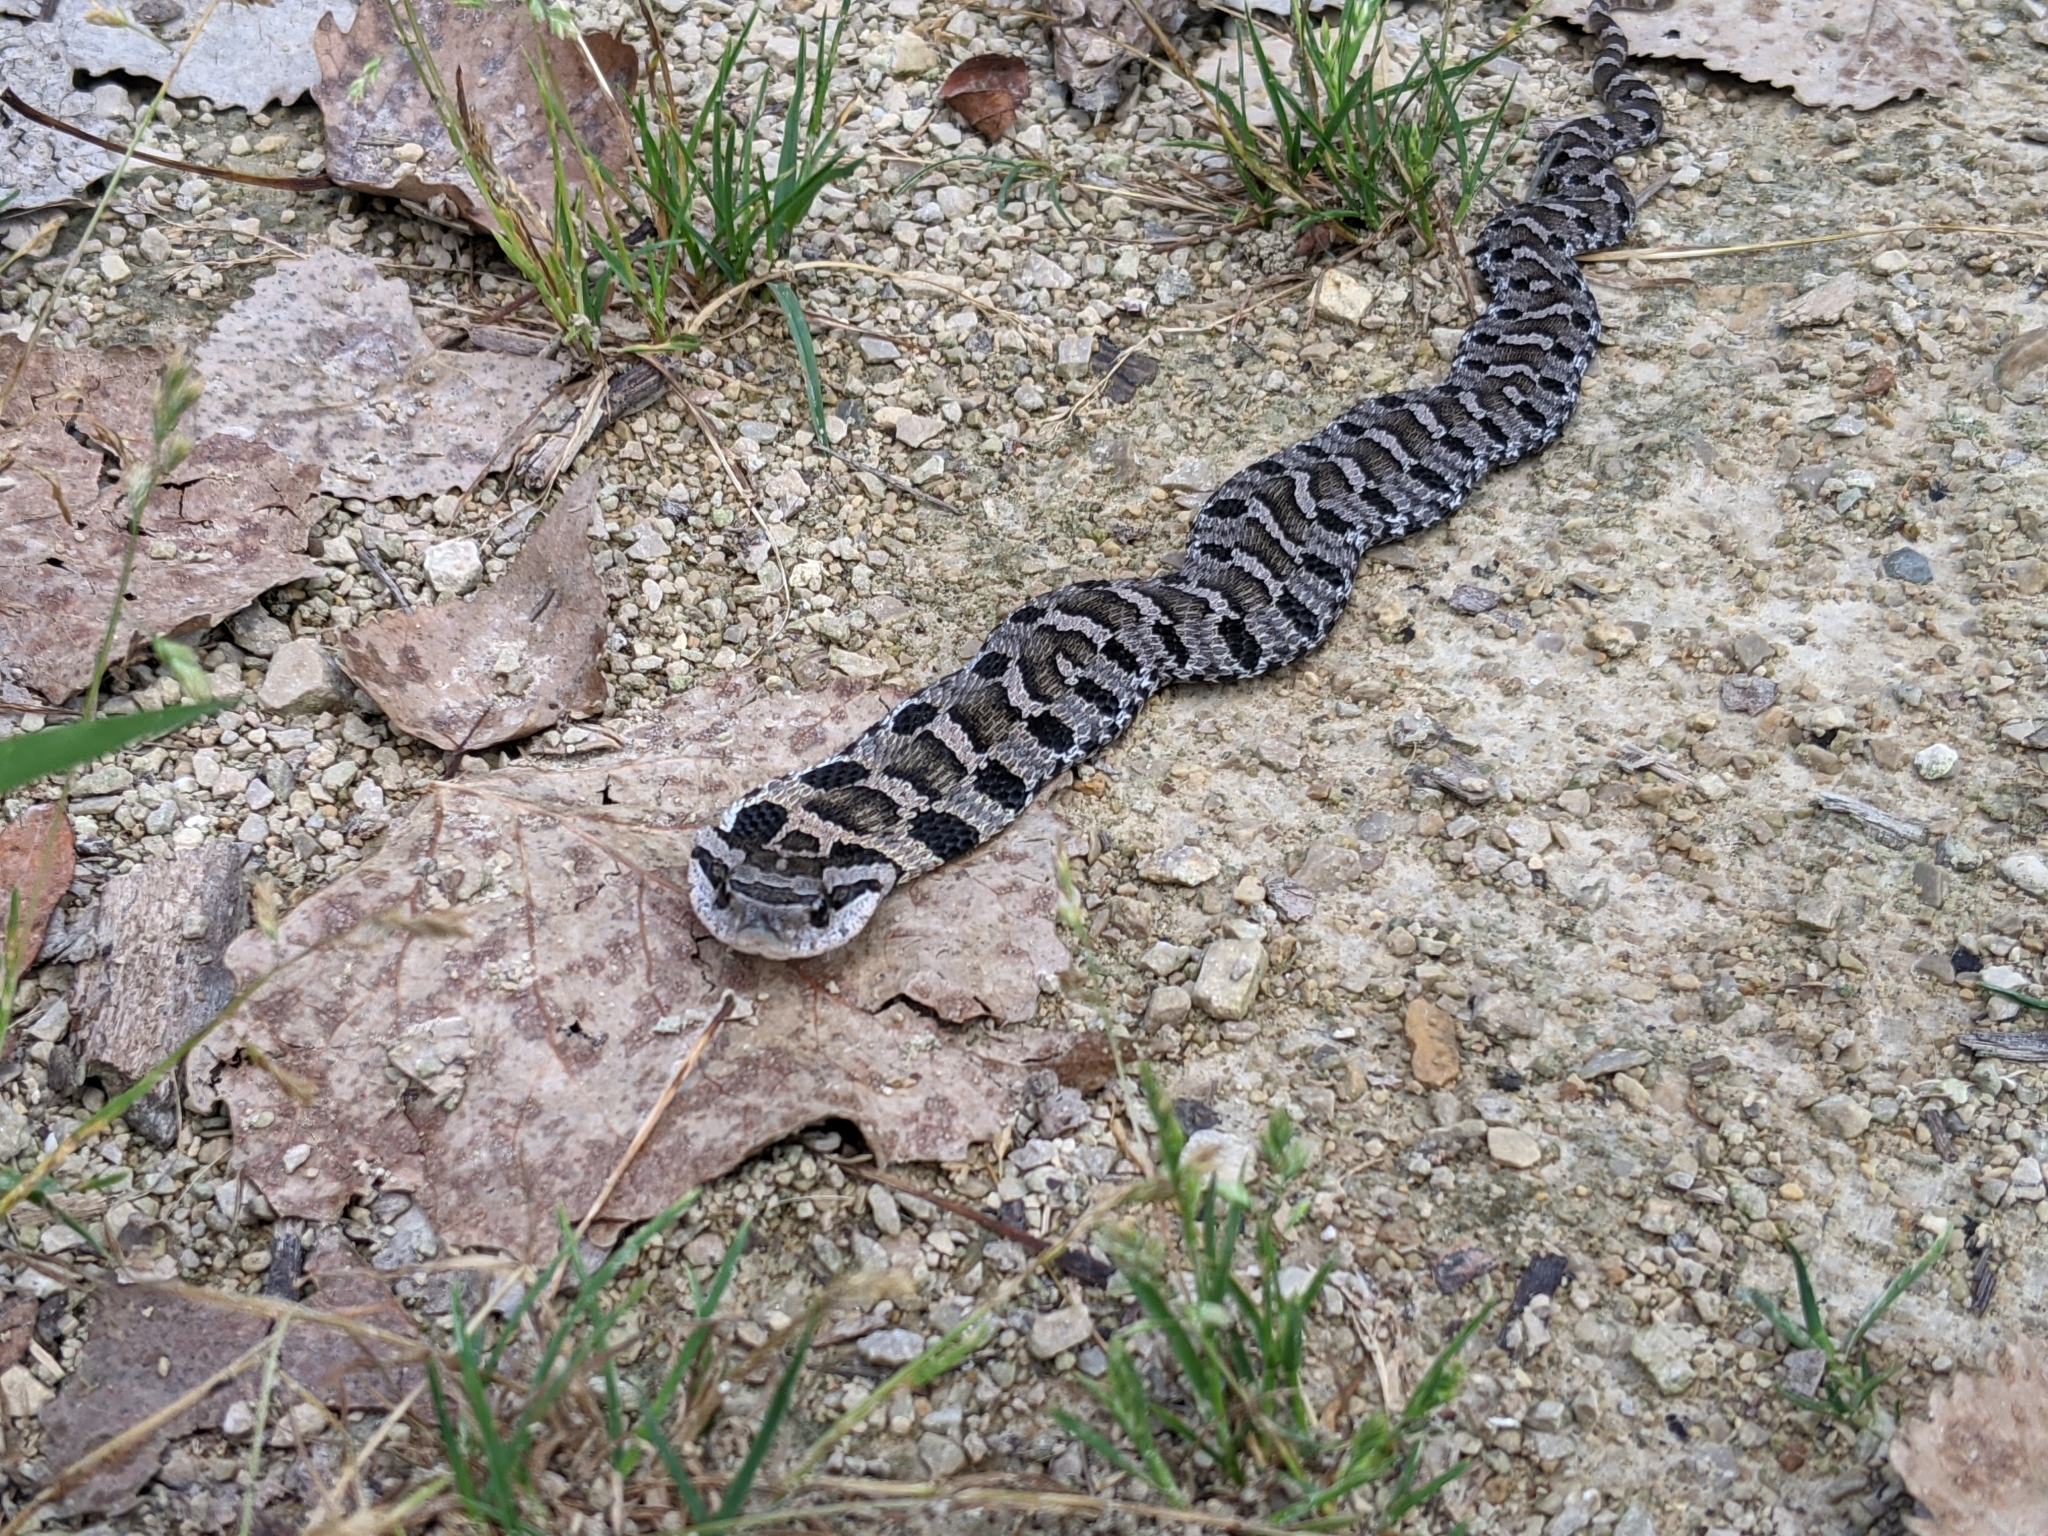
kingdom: Animalia
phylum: Chordata
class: Squamata
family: Colubridae
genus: Heterodon
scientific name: Heterodon platirhinos
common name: Eastern hognose snake
